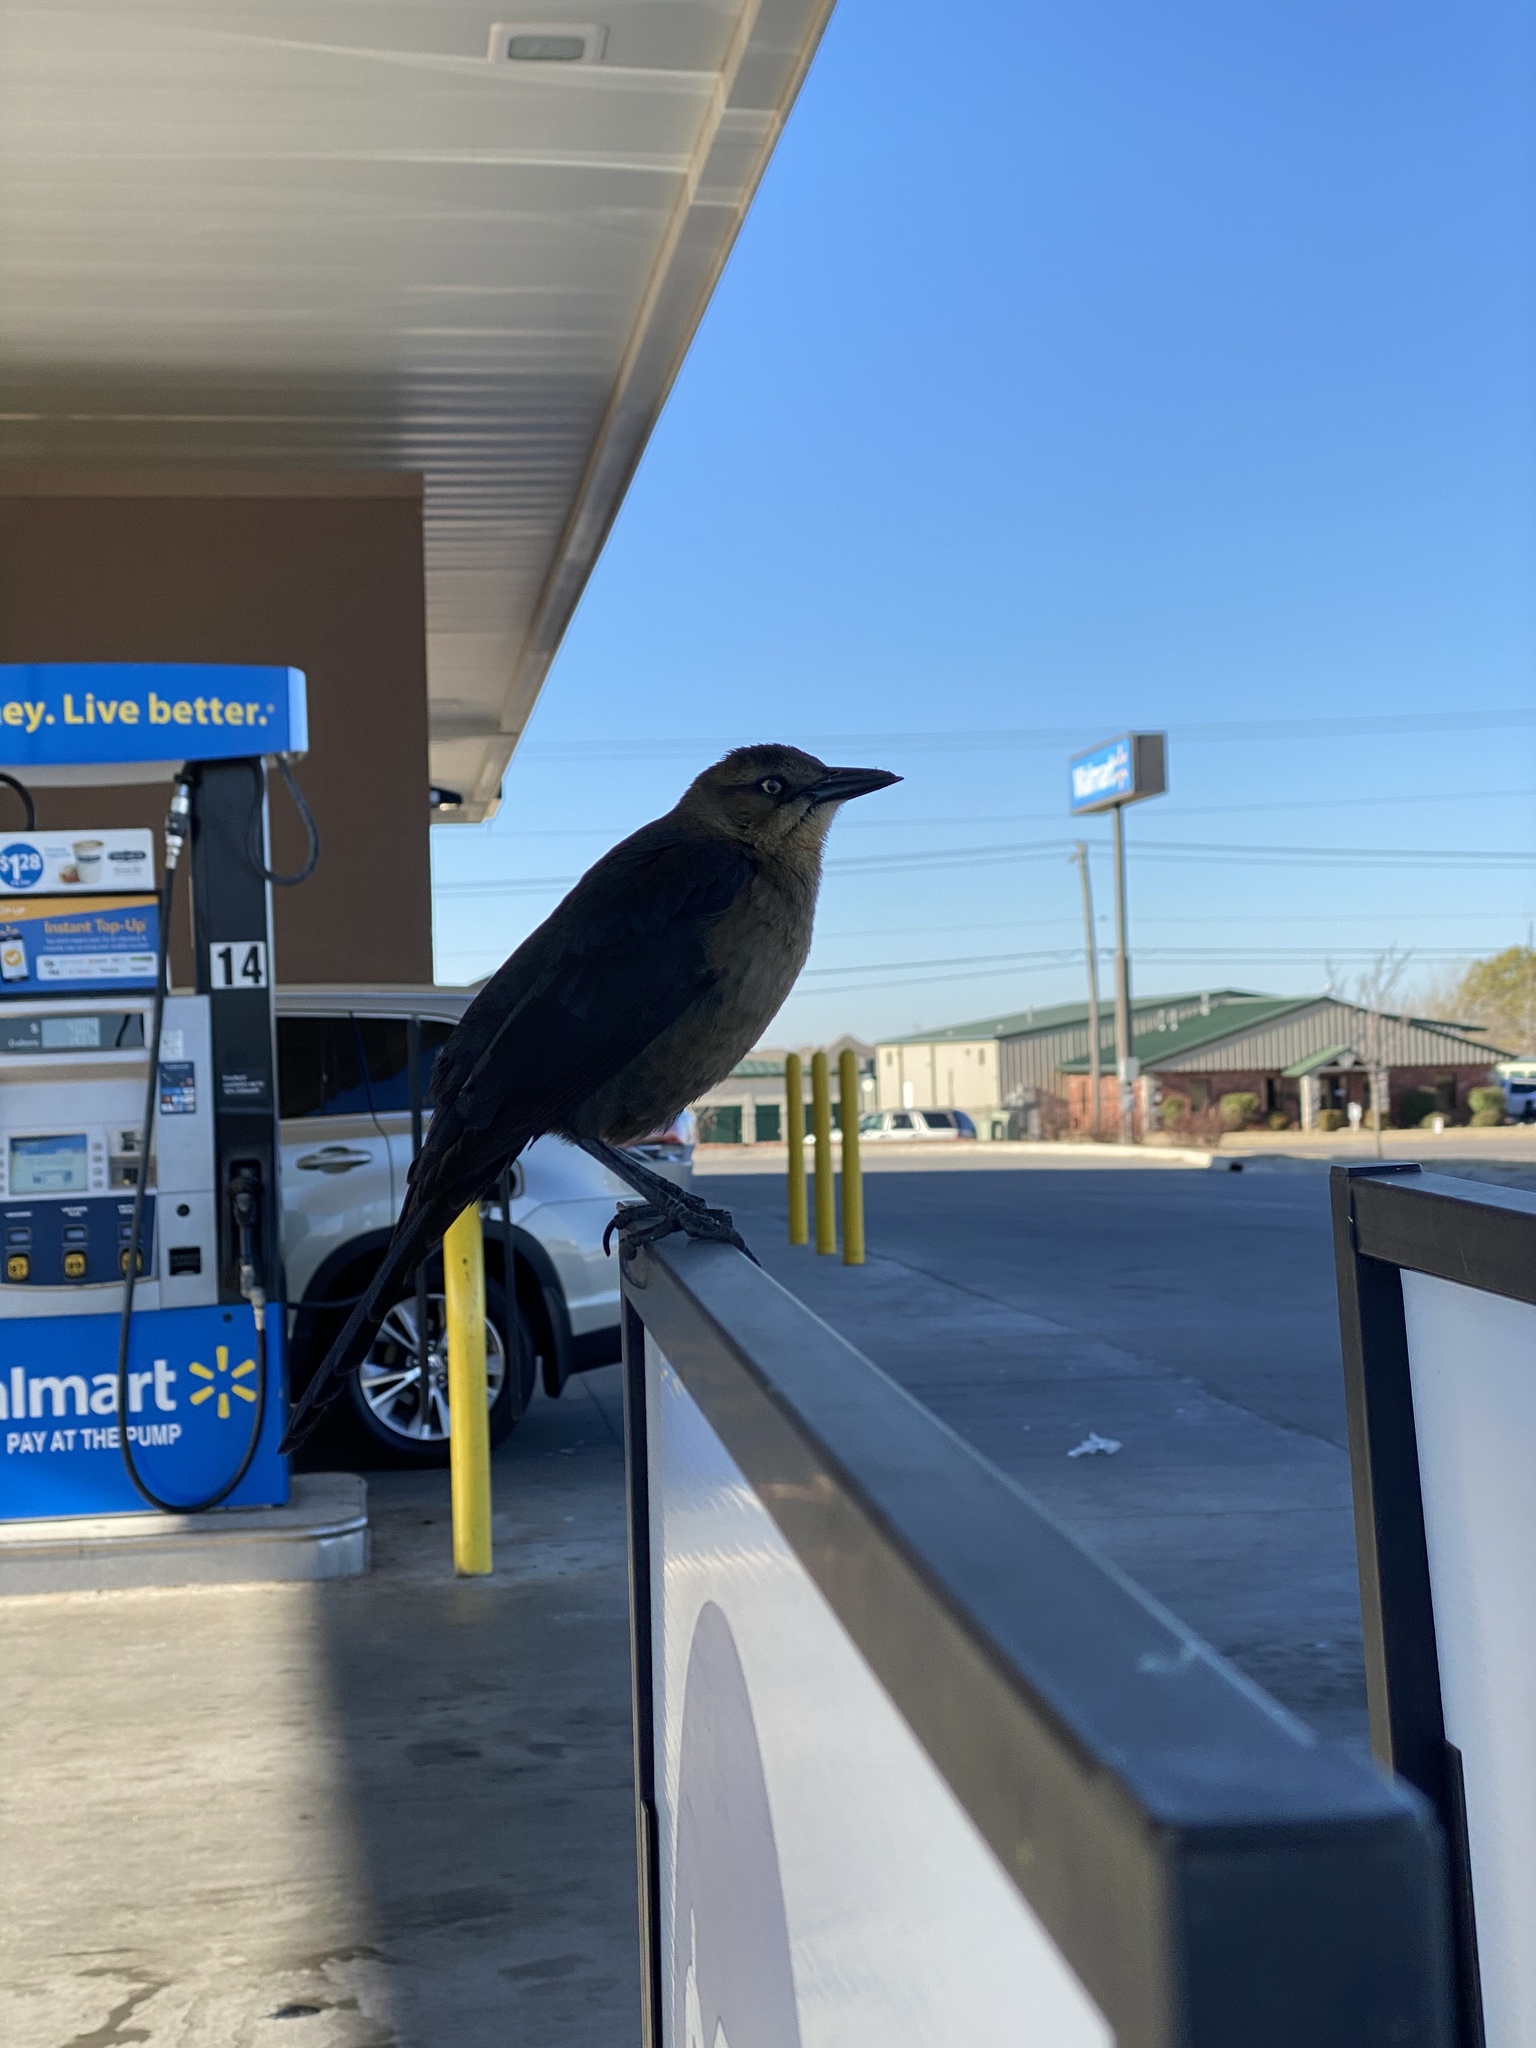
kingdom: Animalia
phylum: Chordata
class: Aves
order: Passeriformes
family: Icteridae
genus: Quiscalus
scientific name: Quiscalus mexicanus
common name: Great-tailed grackle
